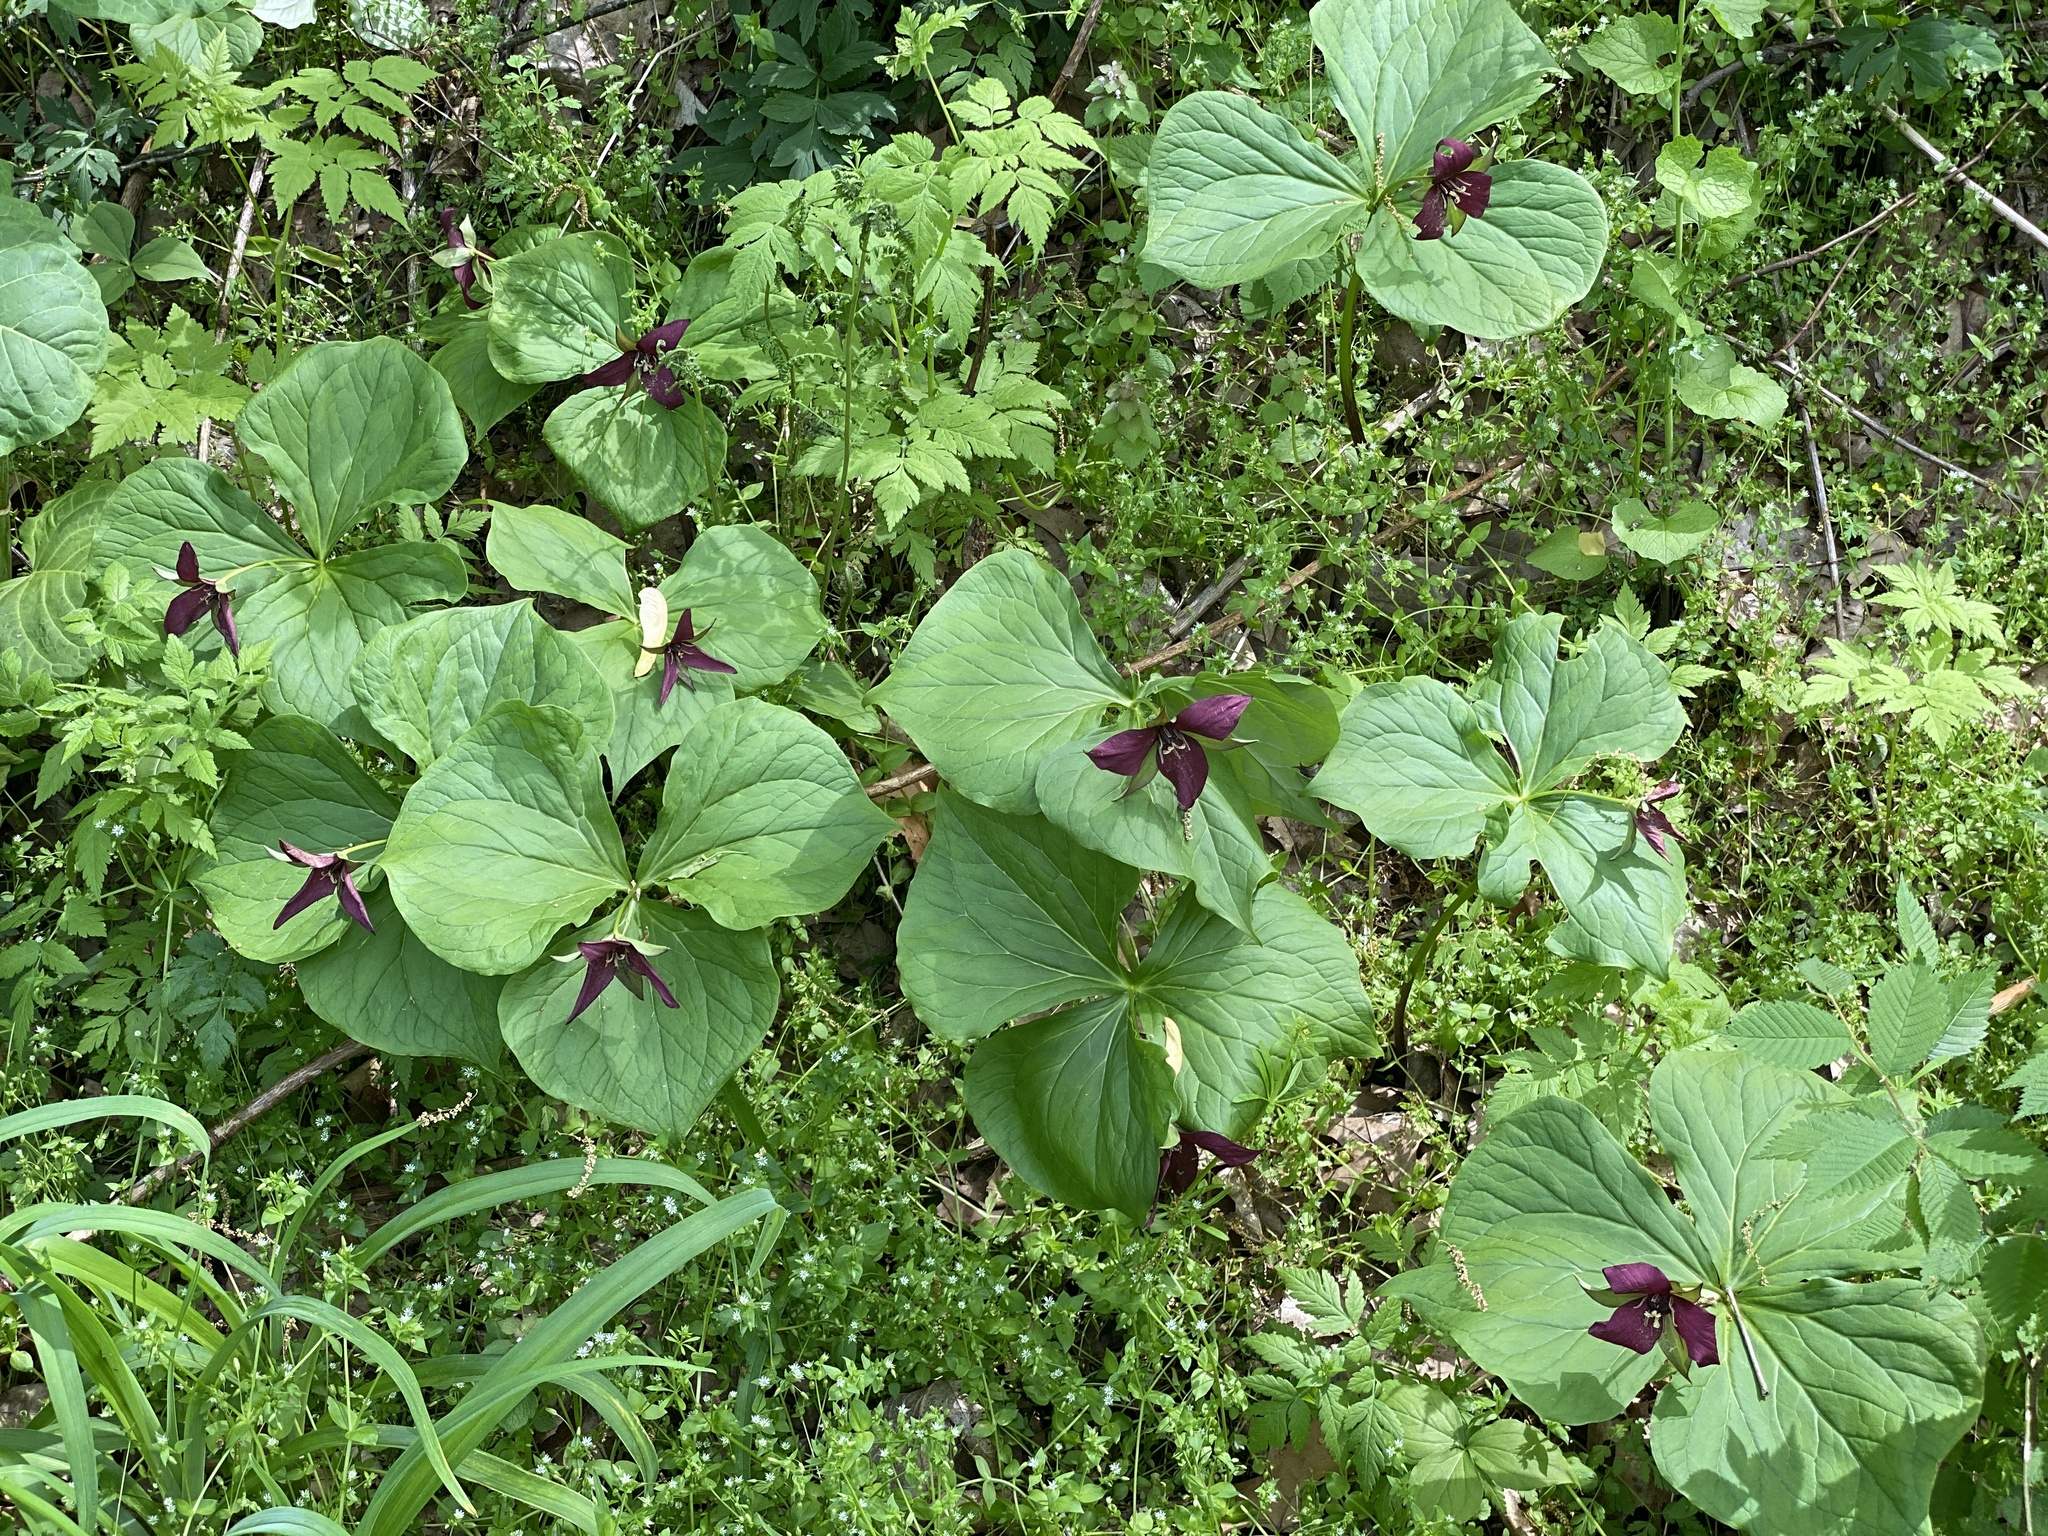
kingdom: Plantae
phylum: Tracheophyta
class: Liliopsida
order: Liliales
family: Melanthiaceae
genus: Trillium
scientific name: Trillium erectum
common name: Purple trillium
